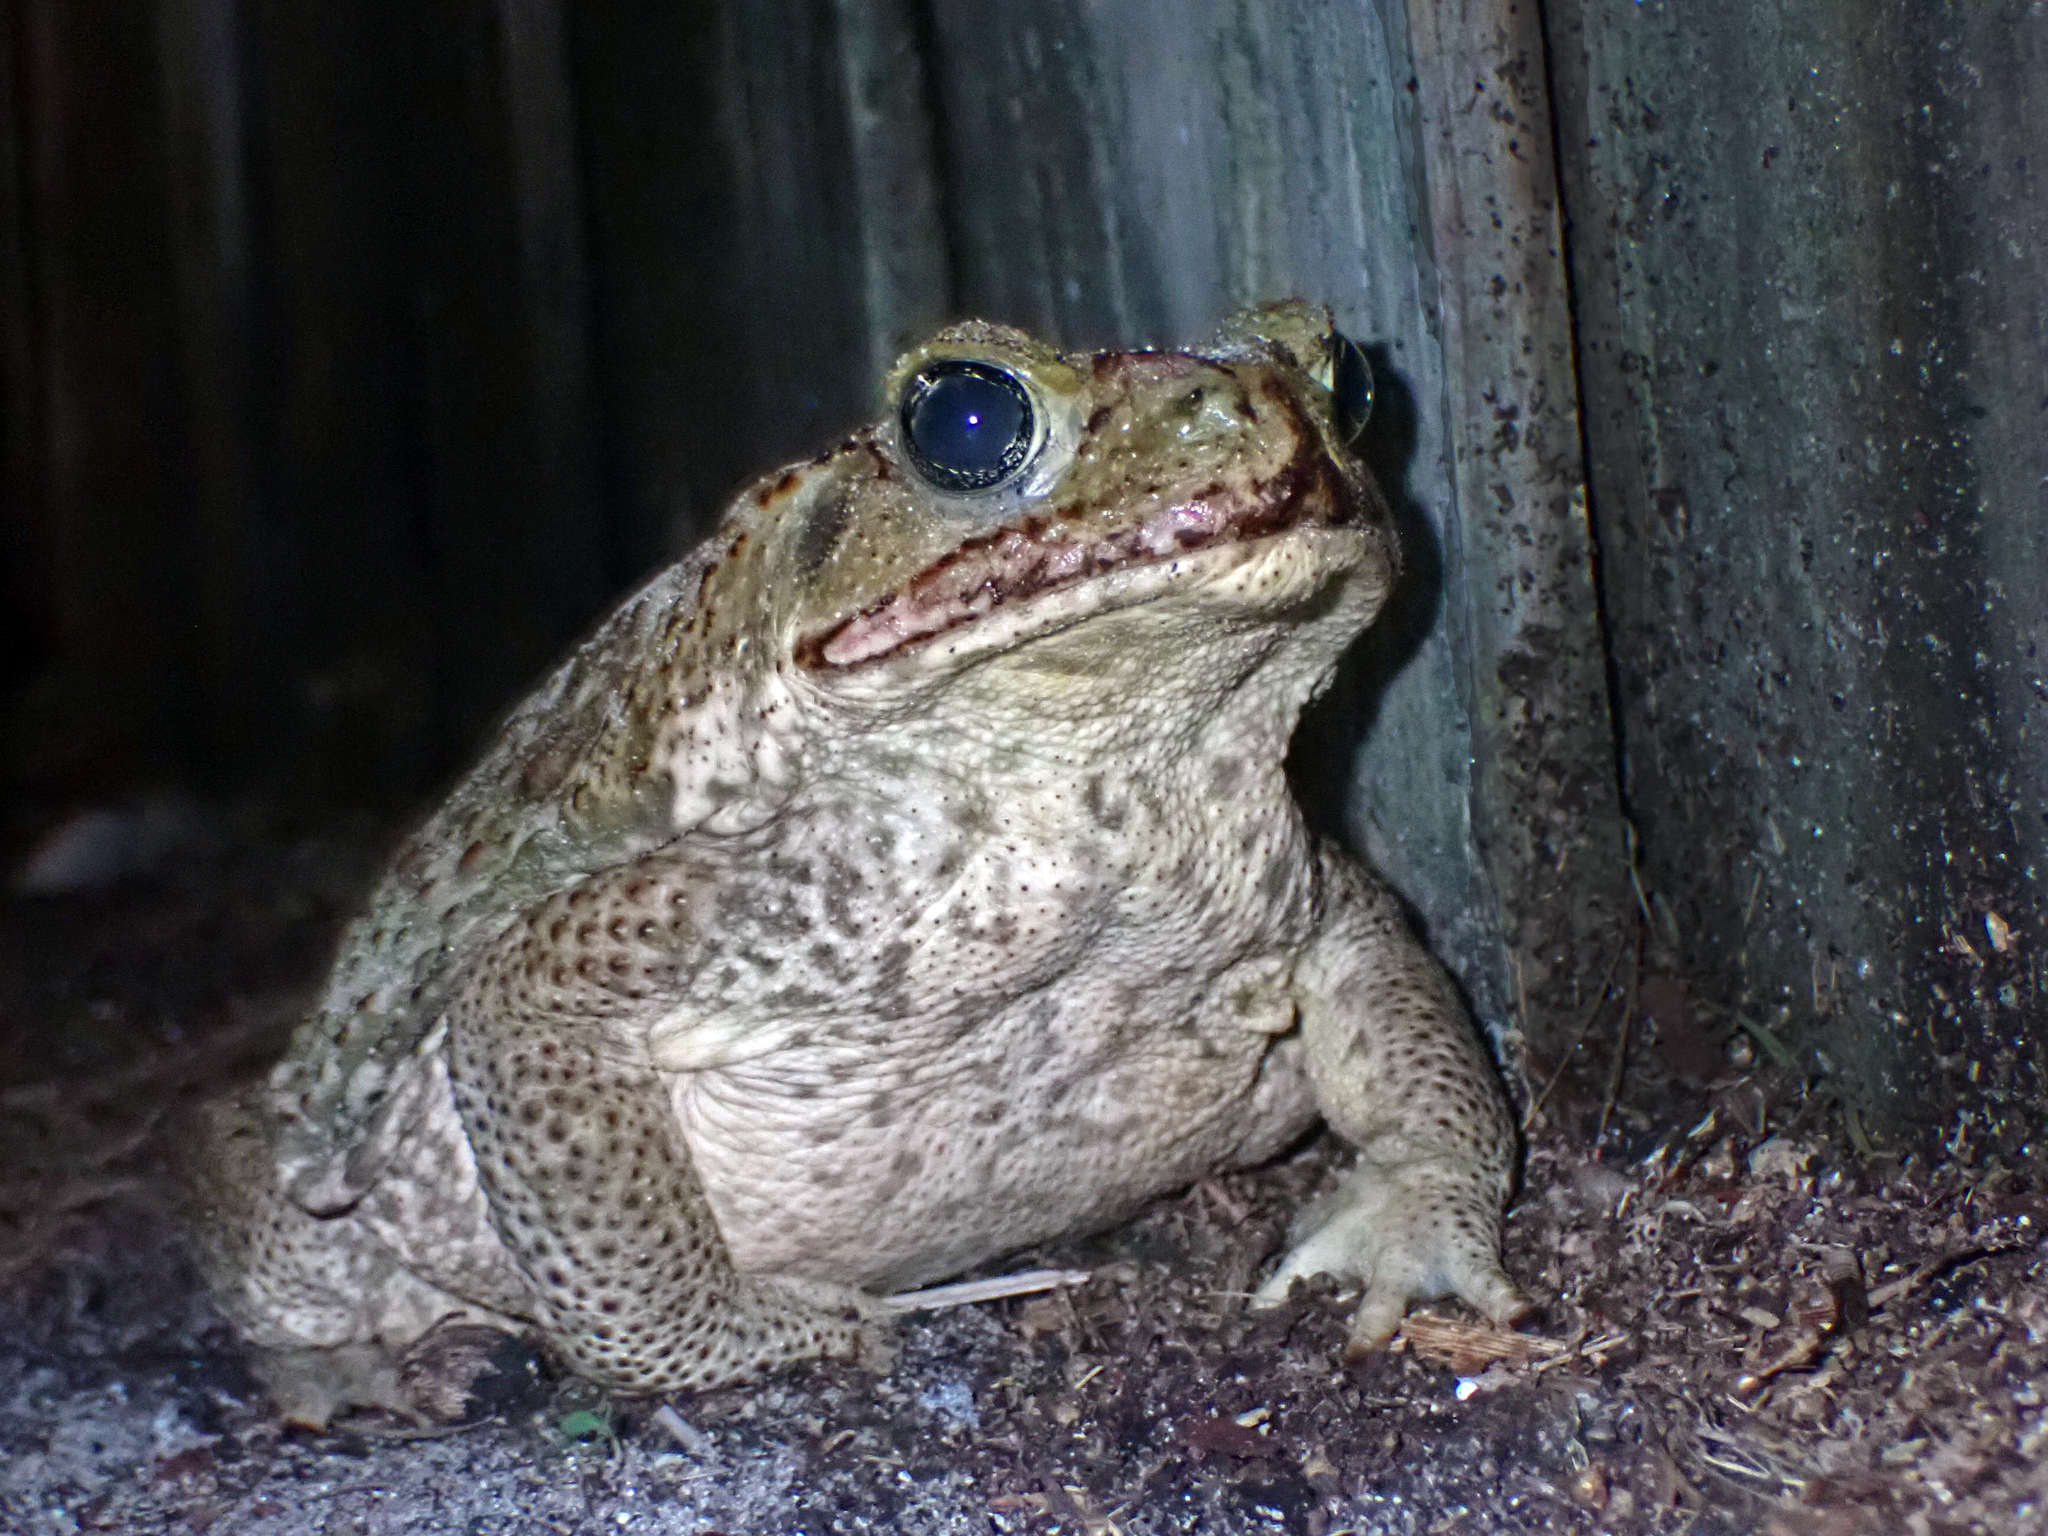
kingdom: Animalia
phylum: Chordata
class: Amphibia
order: Anura
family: Bufonidae
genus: Rhinella
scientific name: Rhinella marina
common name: Cane toad
